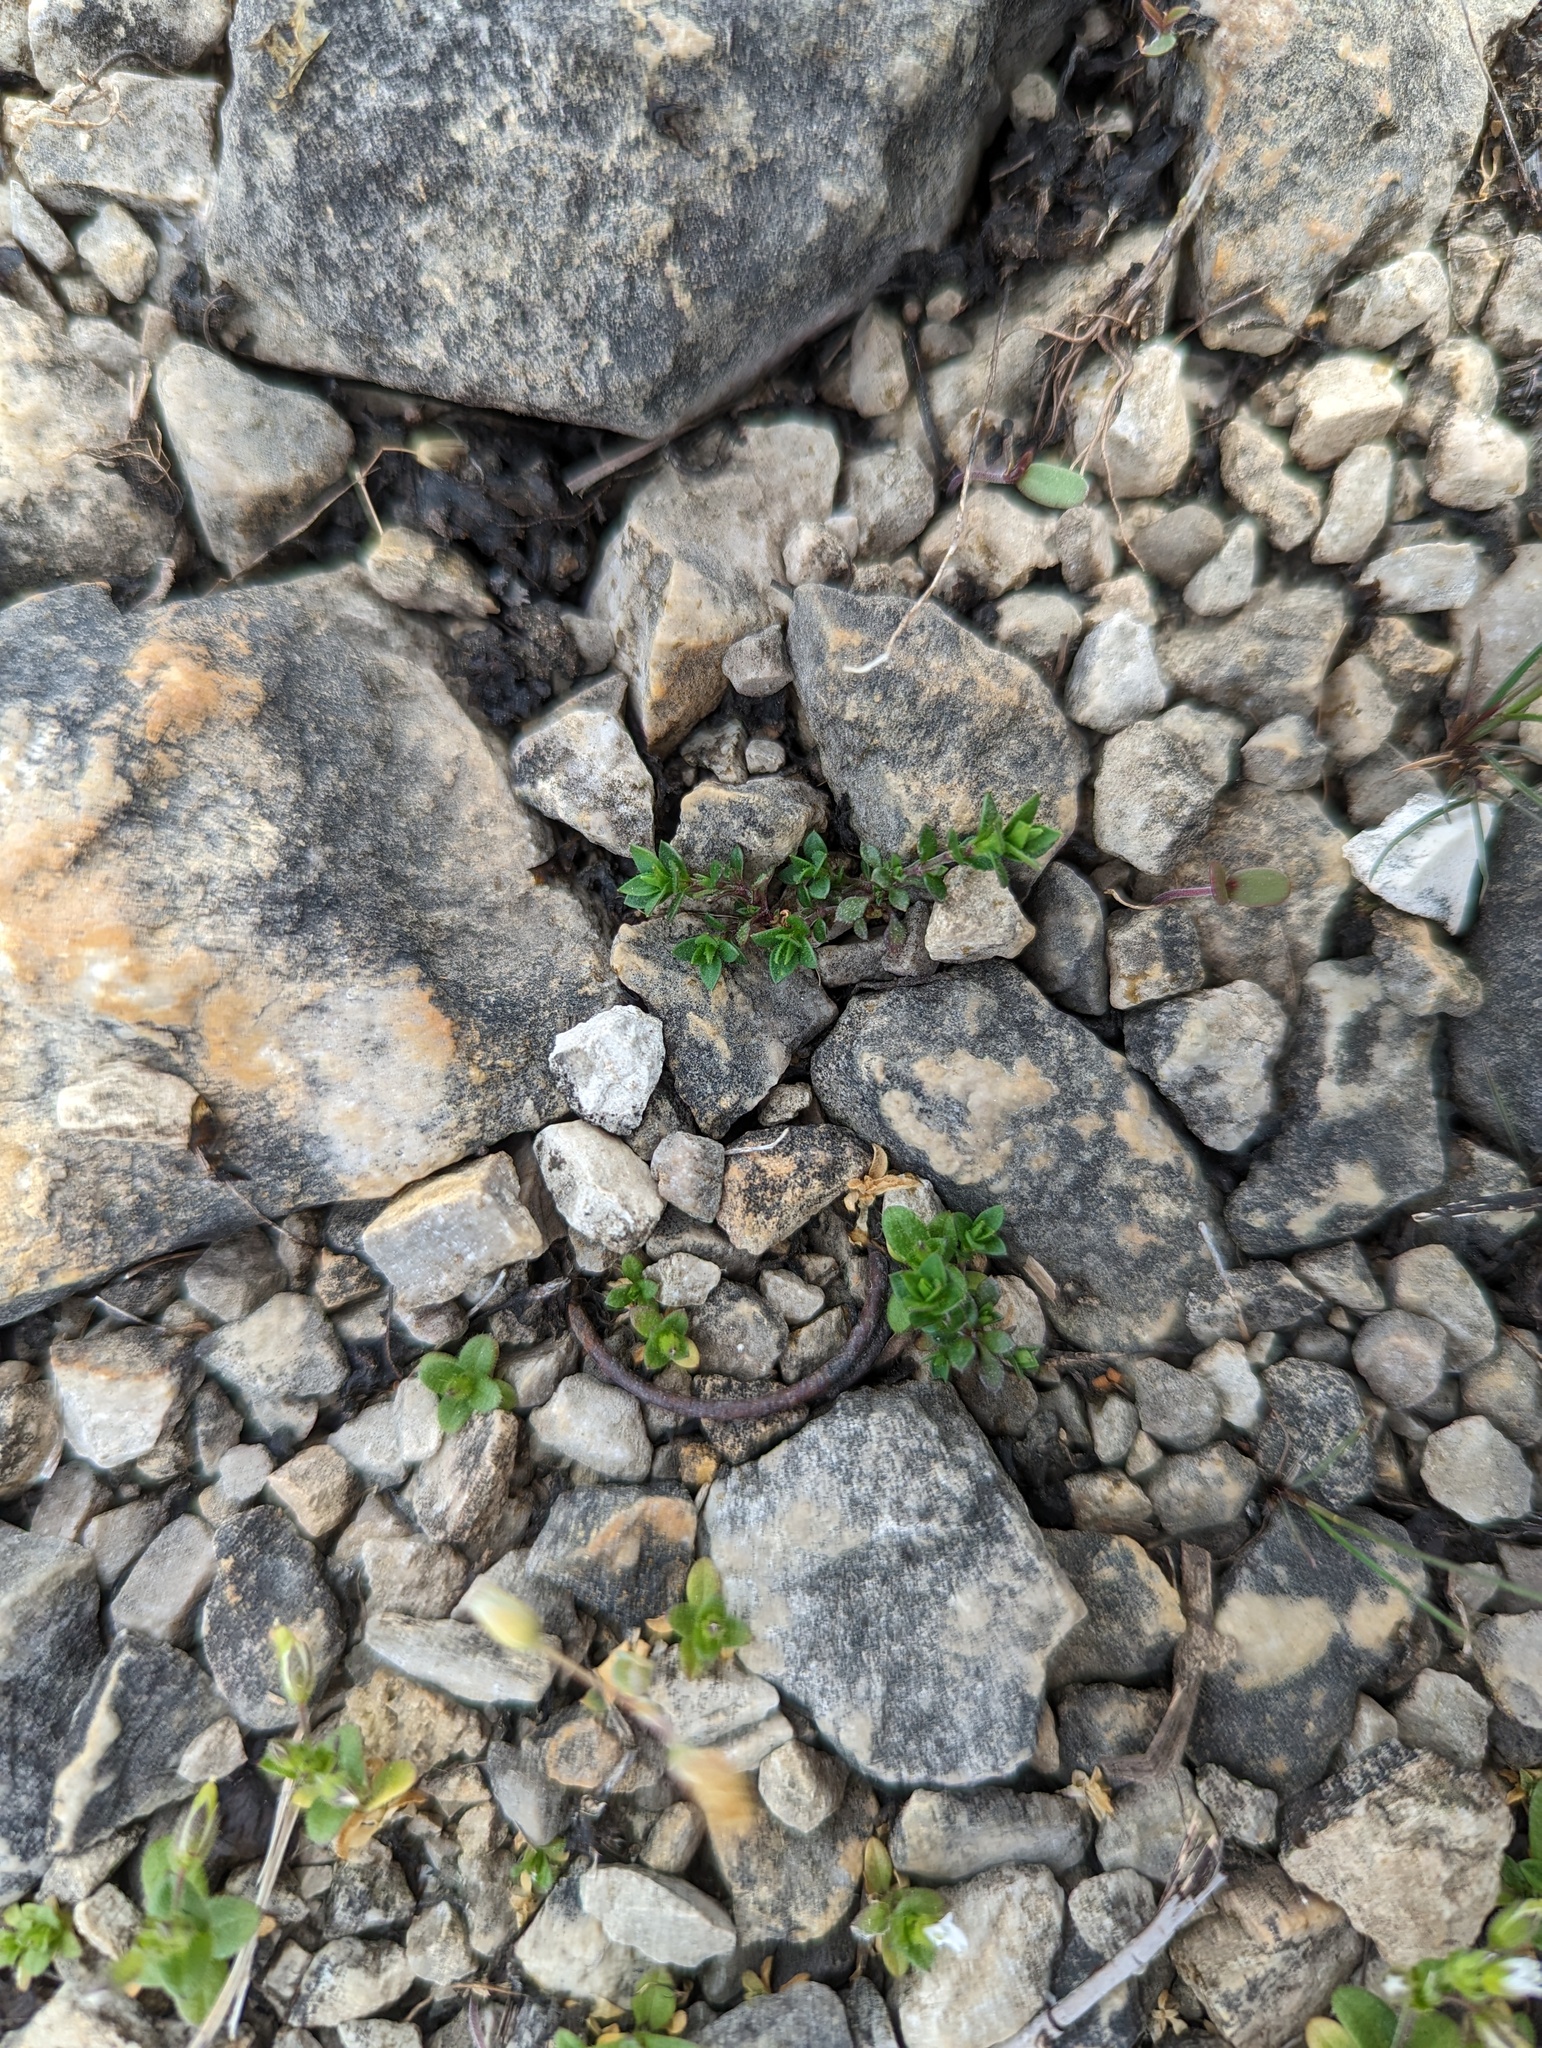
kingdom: Plantae
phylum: Tracheophyta
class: Magnoliopsida
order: Caryophyllales
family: Caryophyllaceae
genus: Arenaria
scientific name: Arenaria serpyllifolia
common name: Thyme-leaved sandwort
